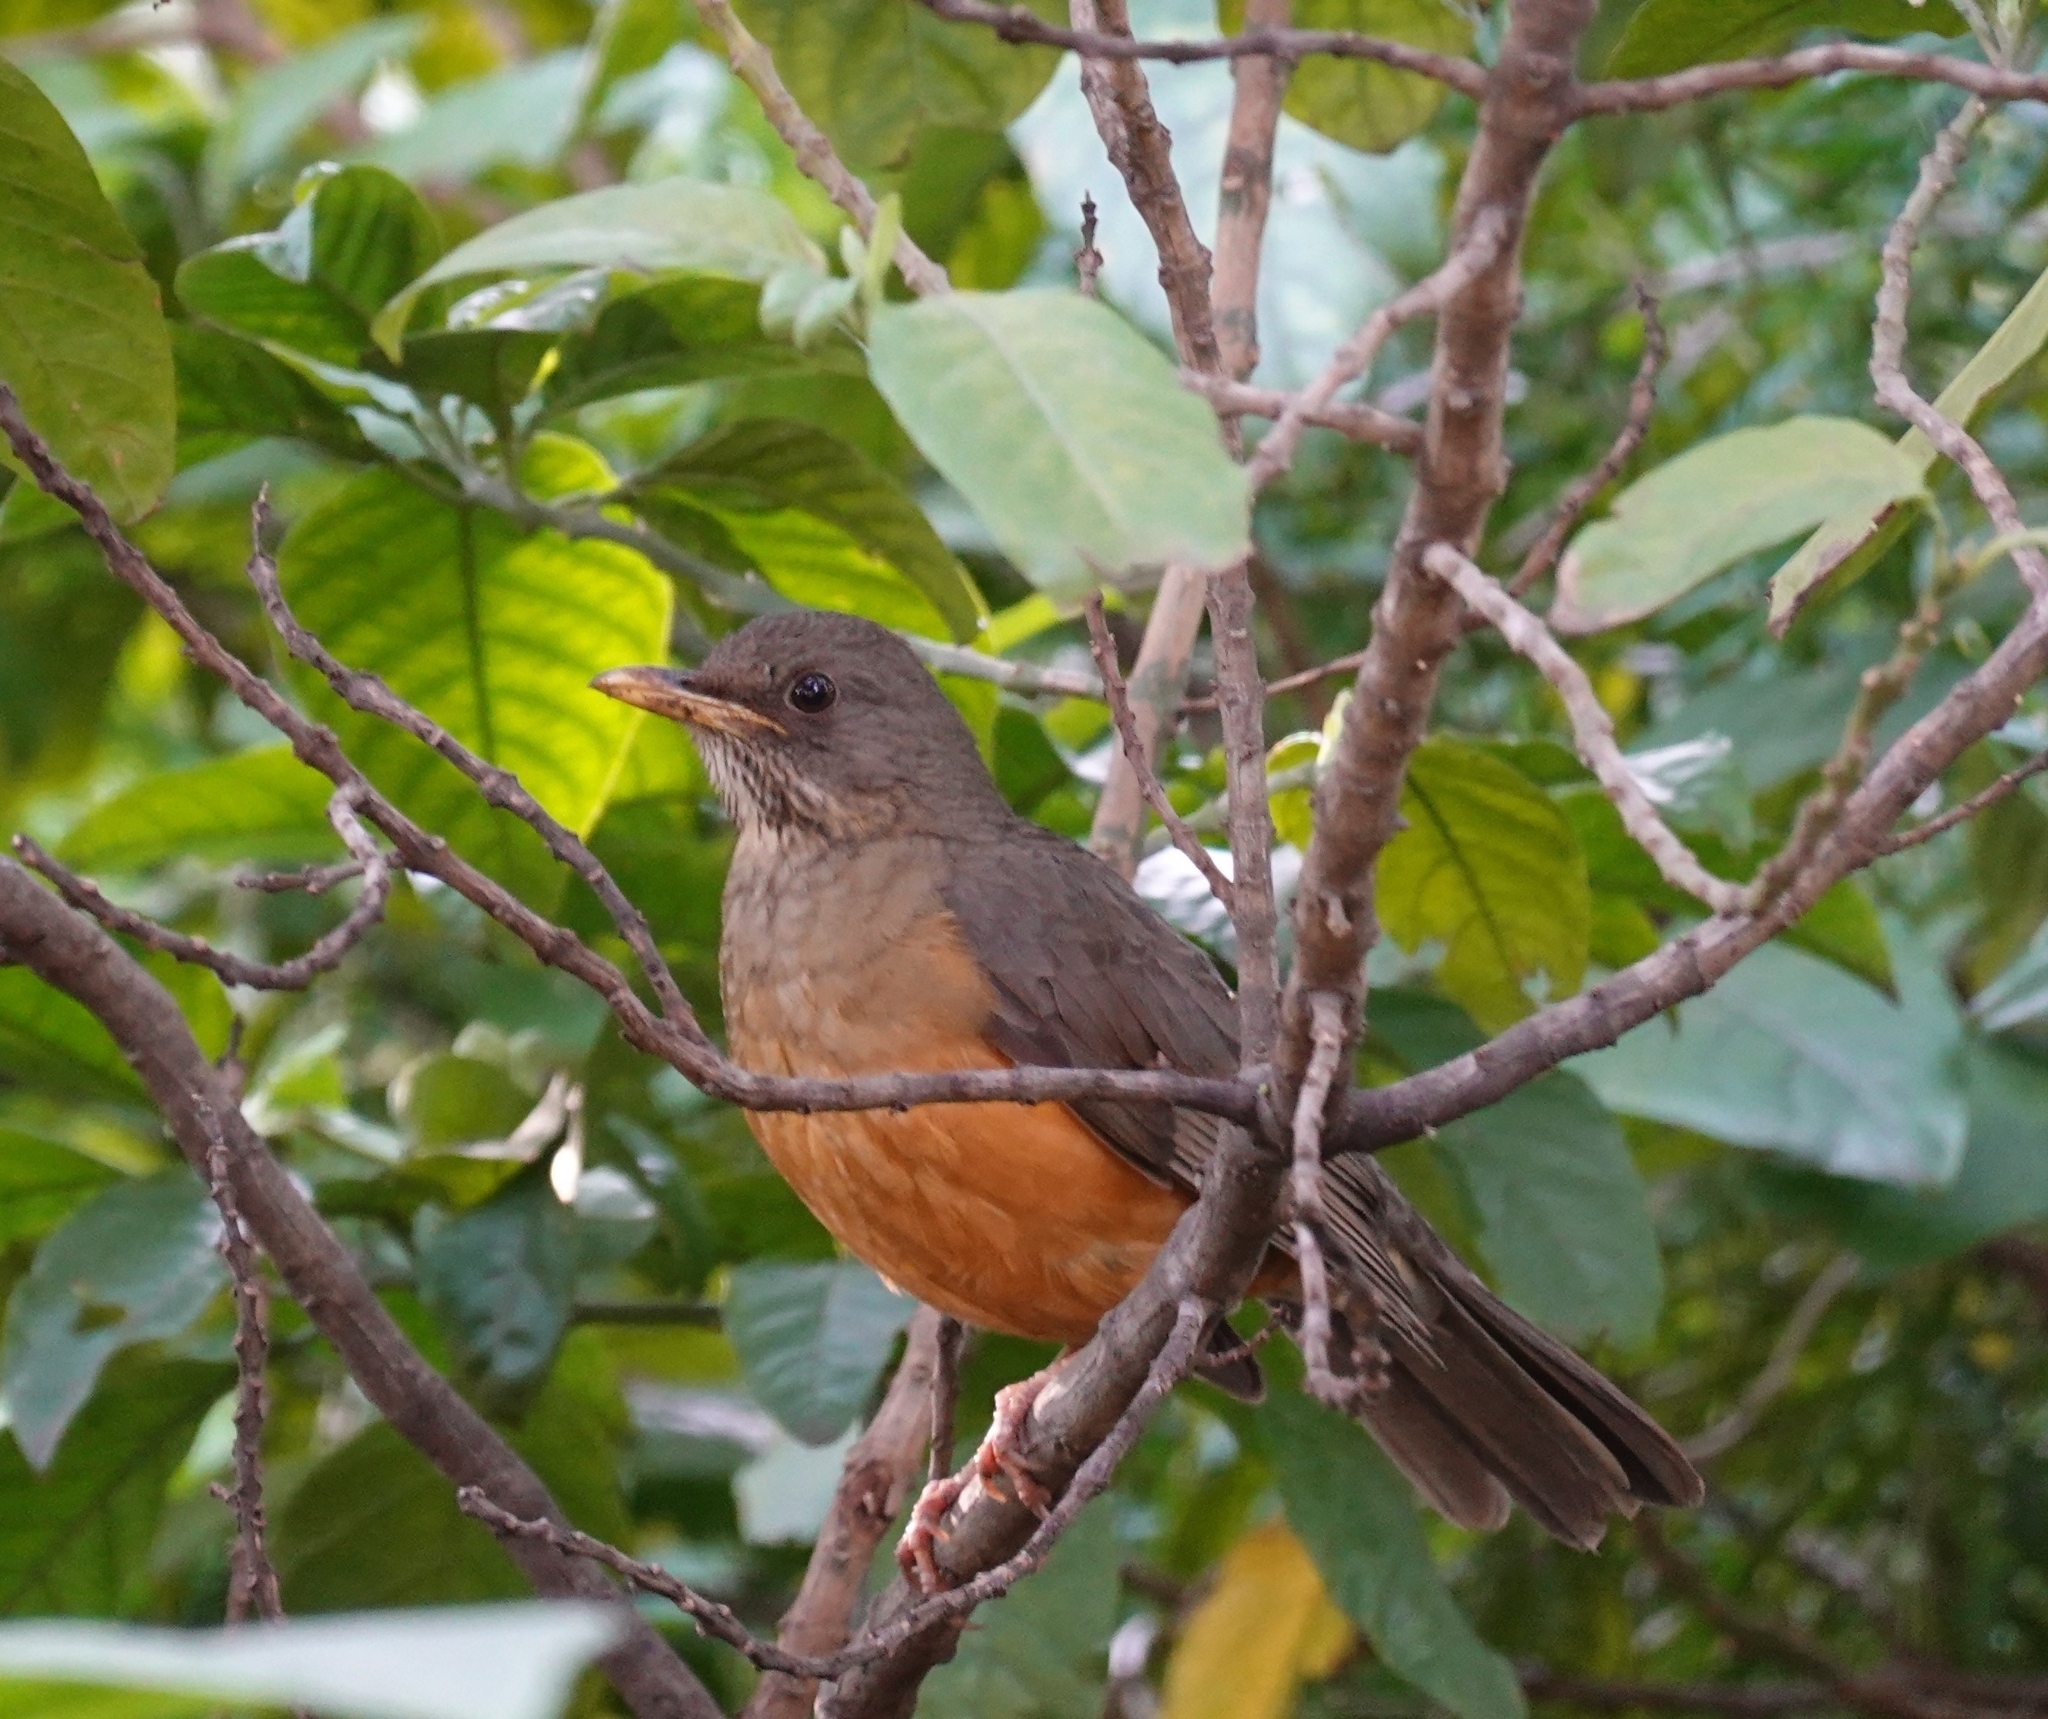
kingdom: Animalia
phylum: Chordata
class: Aves
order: Passeriformes
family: Turdidae
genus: Turdus
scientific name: Turdus olivaceus
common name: Olive thrush
